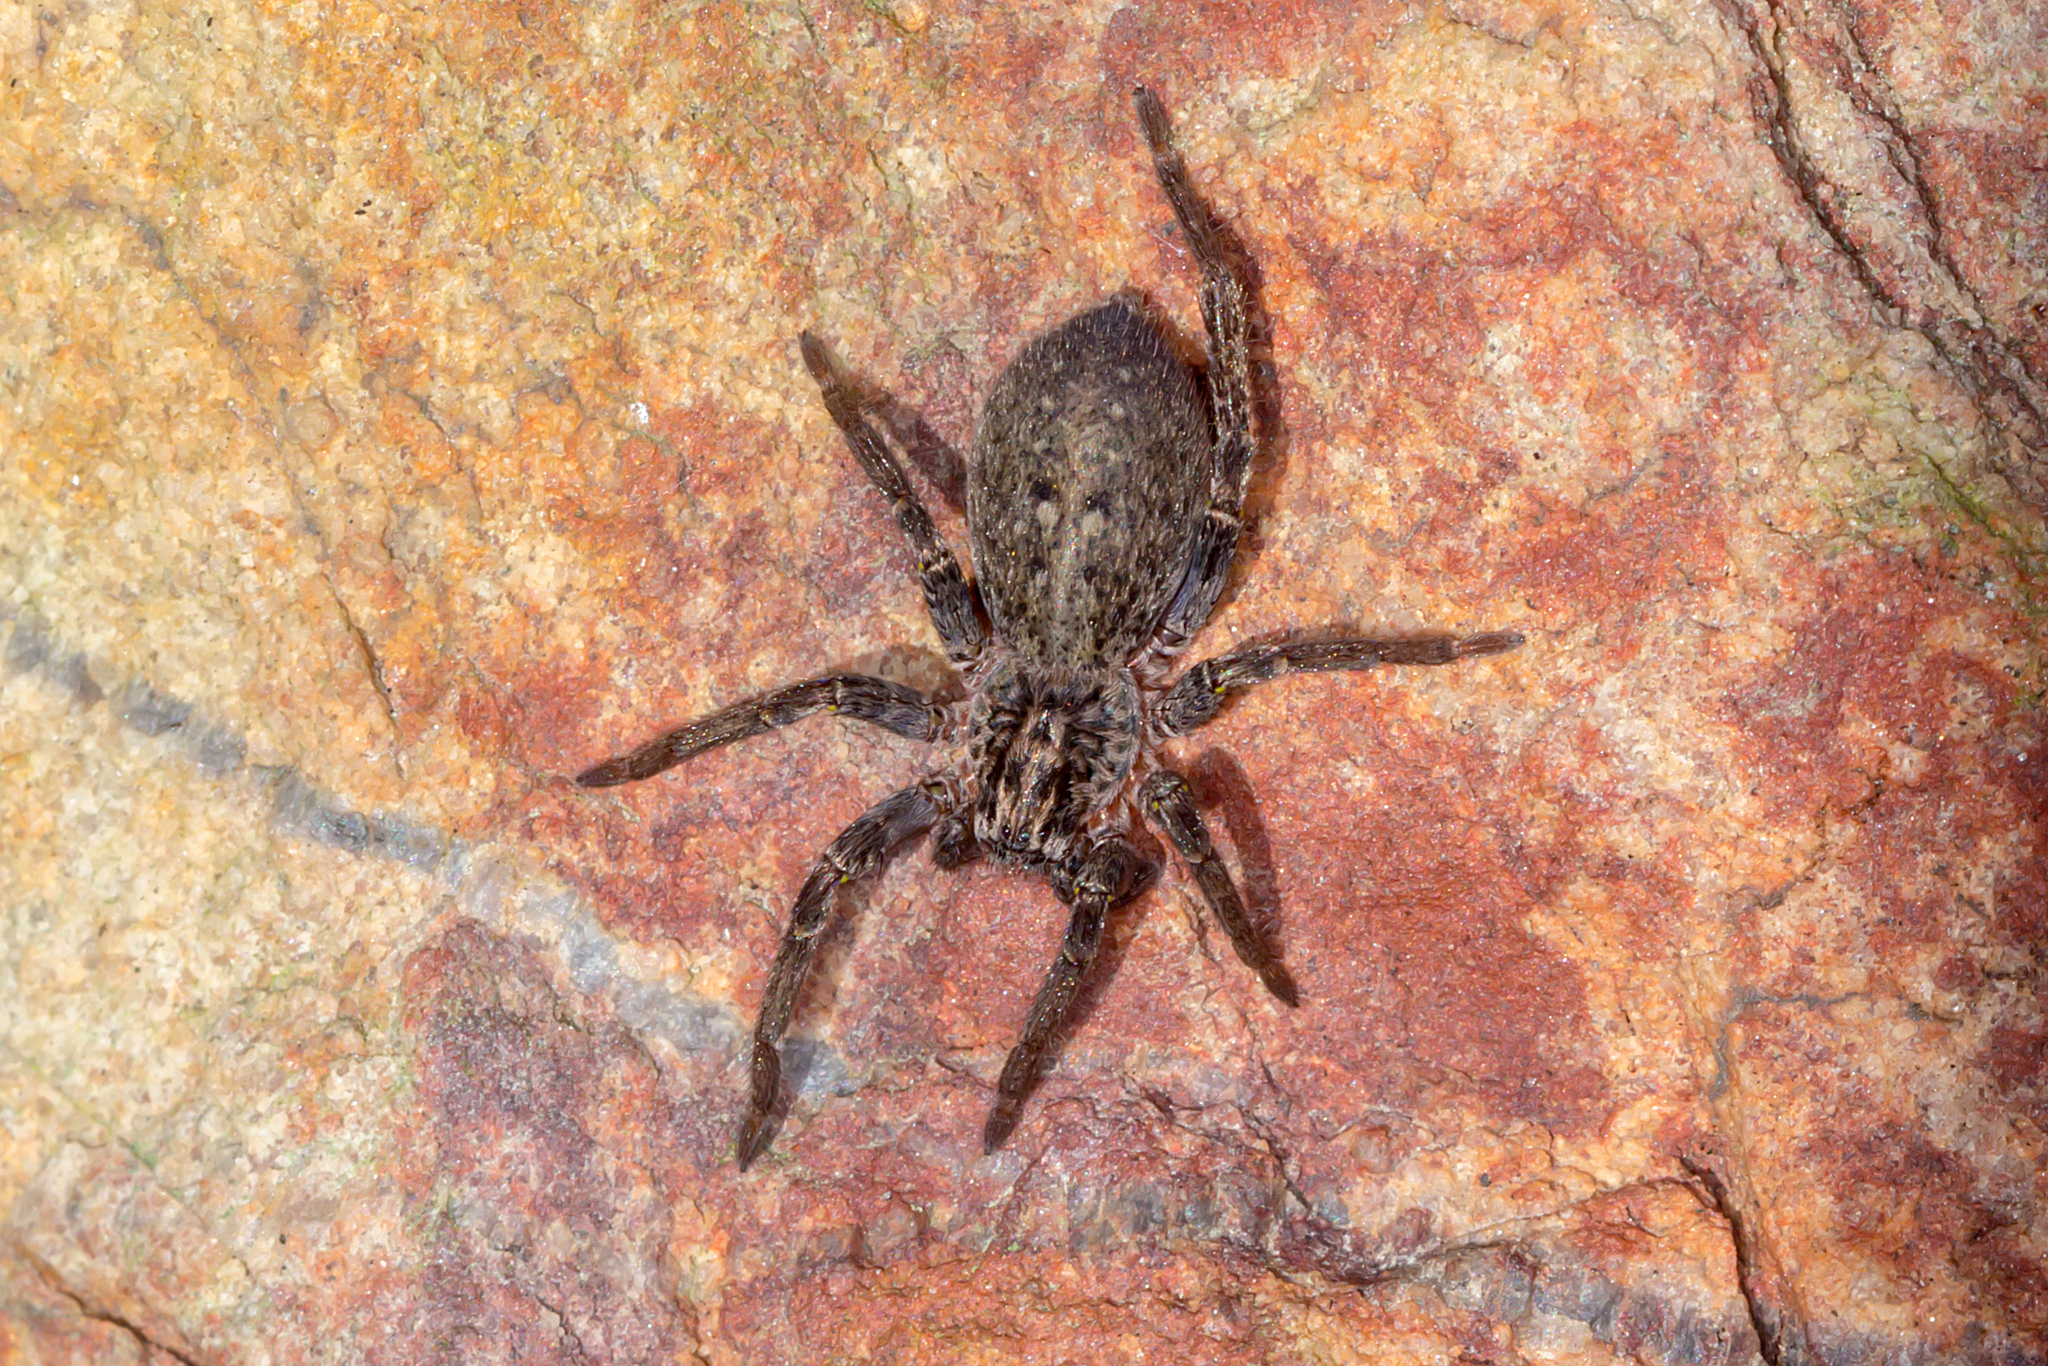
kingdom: Animalia
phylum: Arthropoda
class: Arachnida
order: Araneae
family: Miturgidae
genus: Mituliodon
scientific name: Mituliodon tarantulinus
